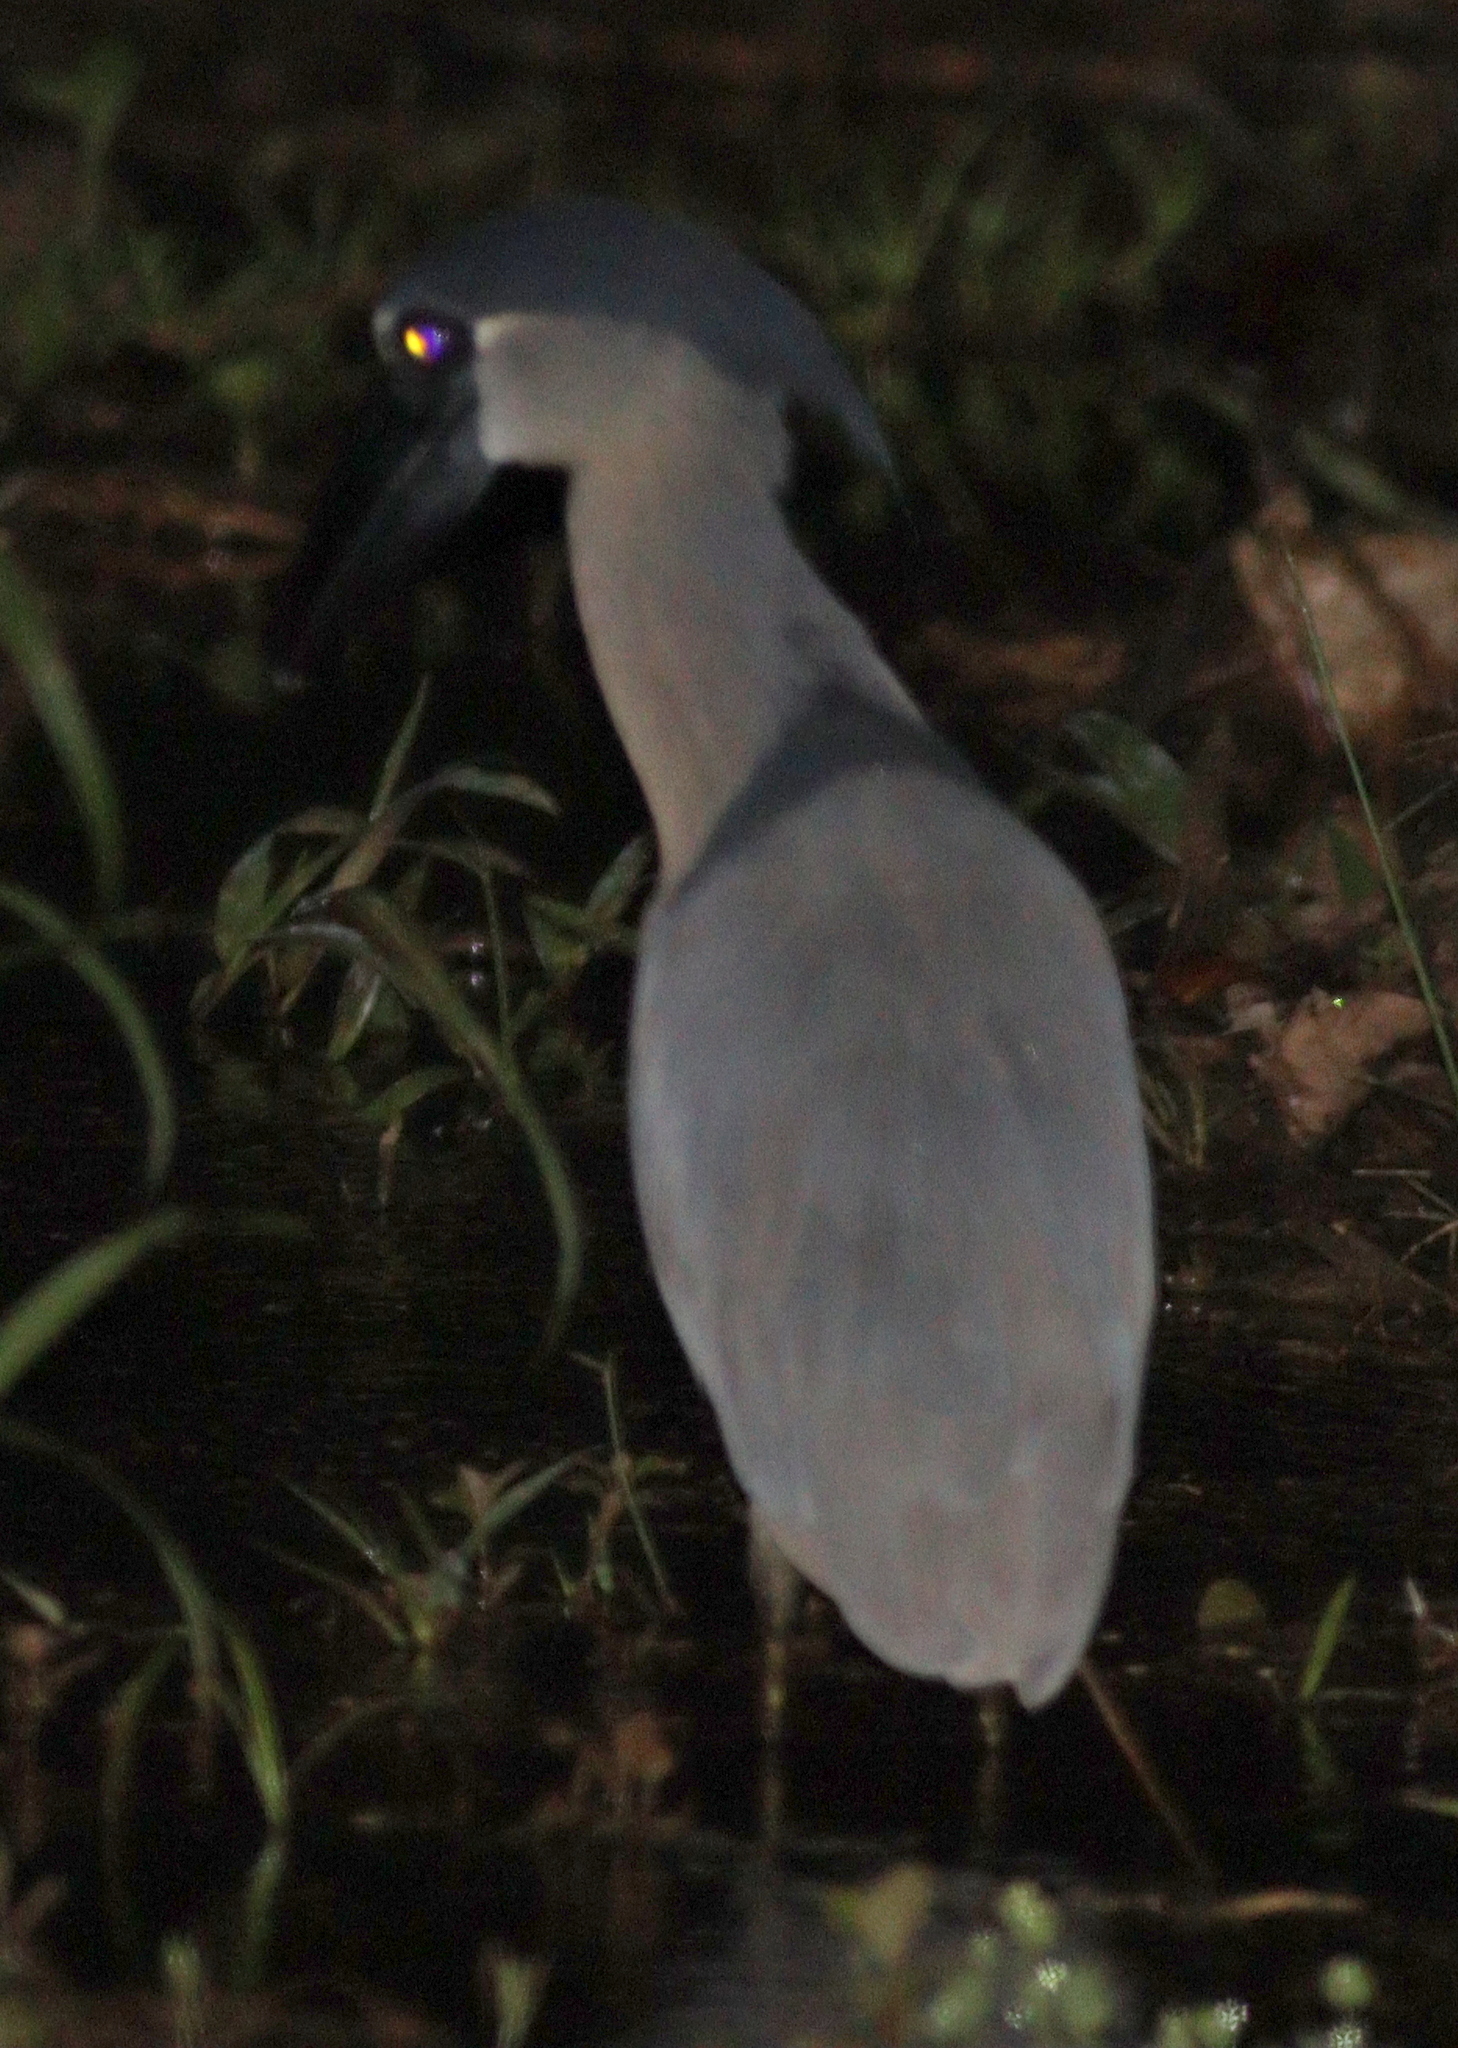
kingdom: Animalia
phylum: Chordata
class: Aves
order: Pelecaniformes
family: Ardeidae
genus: Cochlearius
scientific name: Cochlearius cochlearius
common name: Boat-billed heron
